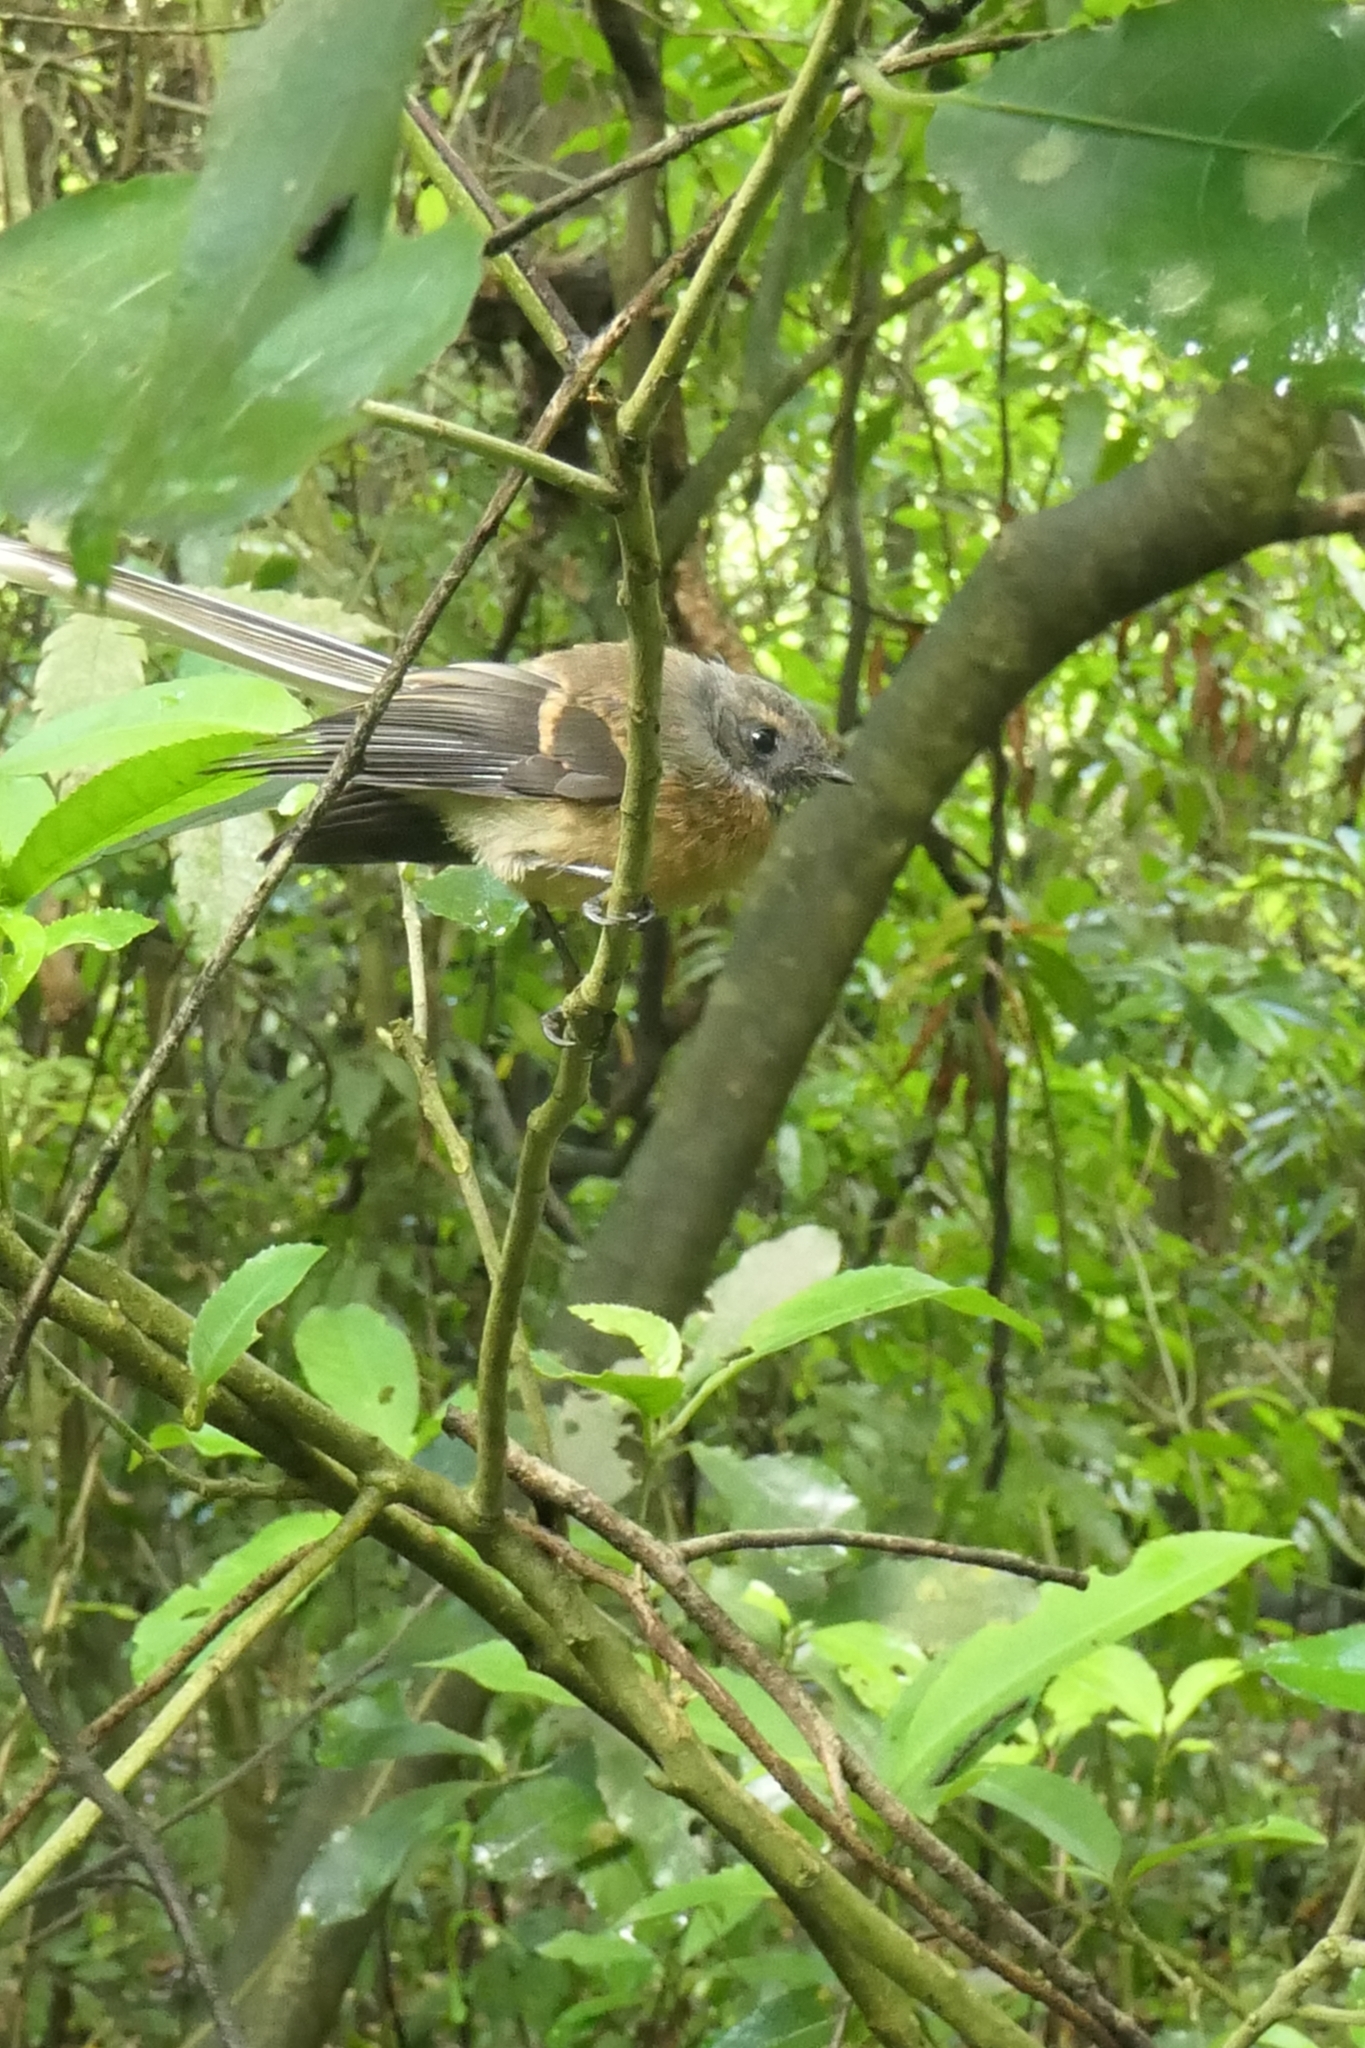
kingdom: Animalia
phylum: Chordata
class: Aves
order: Passeriformes
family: Rhipiduridae
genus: Rhipidura
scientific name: Rhipidura fuliginosa
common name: New zealand fantail
